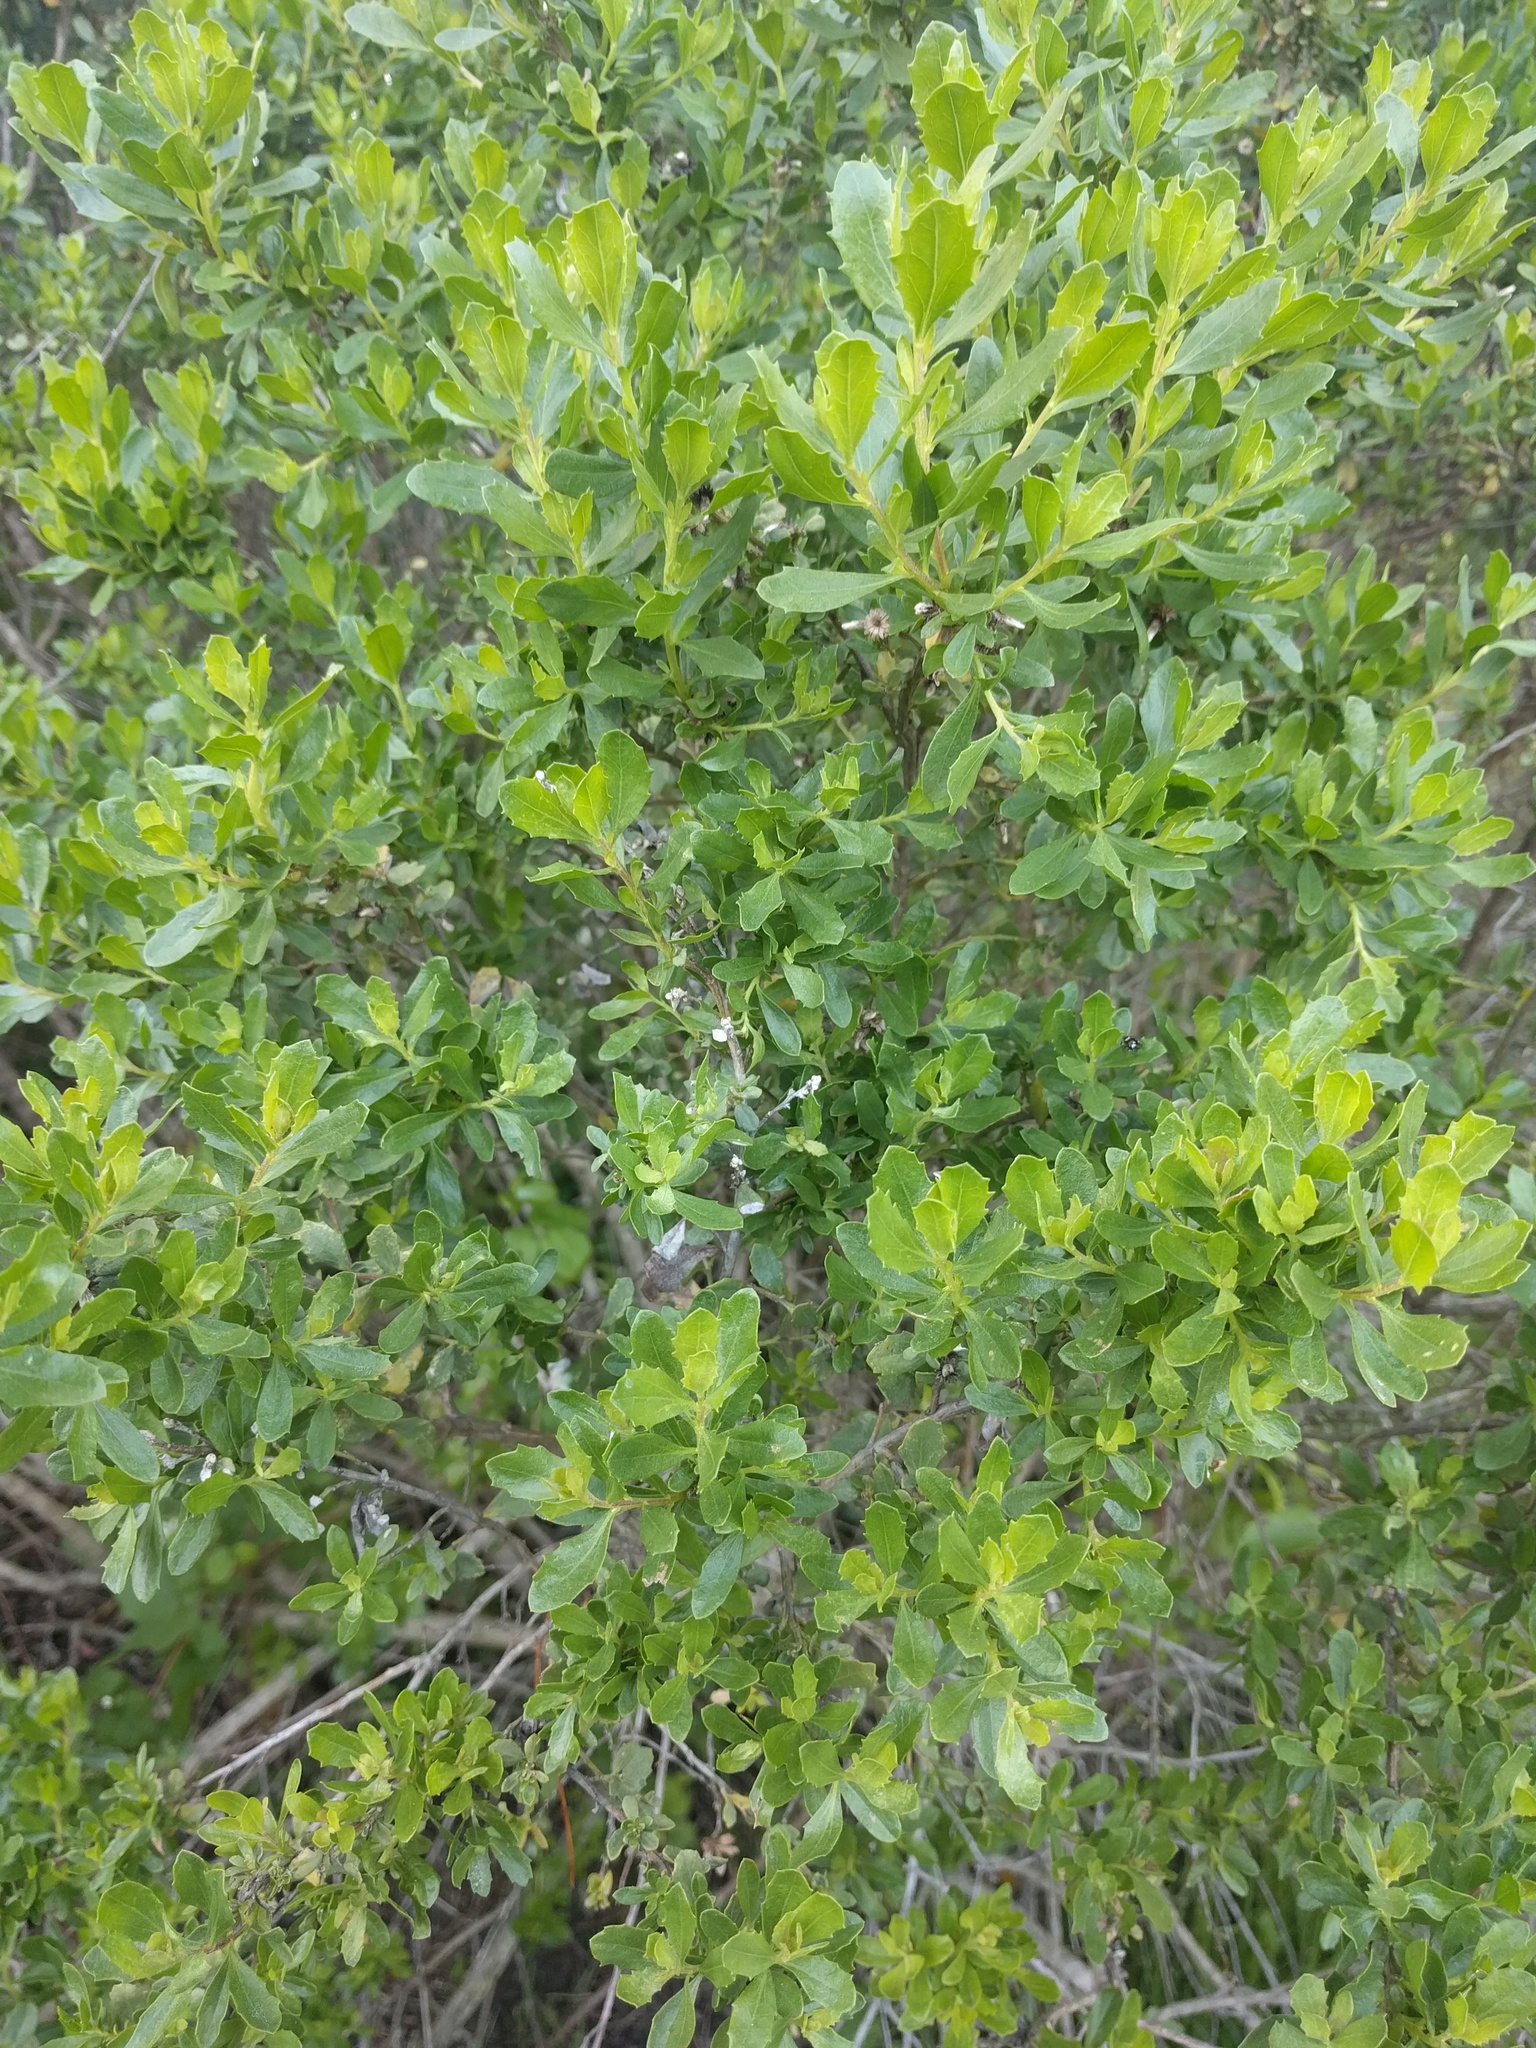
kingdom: Plantae
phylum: Tracheophyta
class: Magnoliopsida
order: Asterales
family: Asteraceae
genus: Baccharis
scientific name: Baccharis pilularis
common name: Coyotebrush
